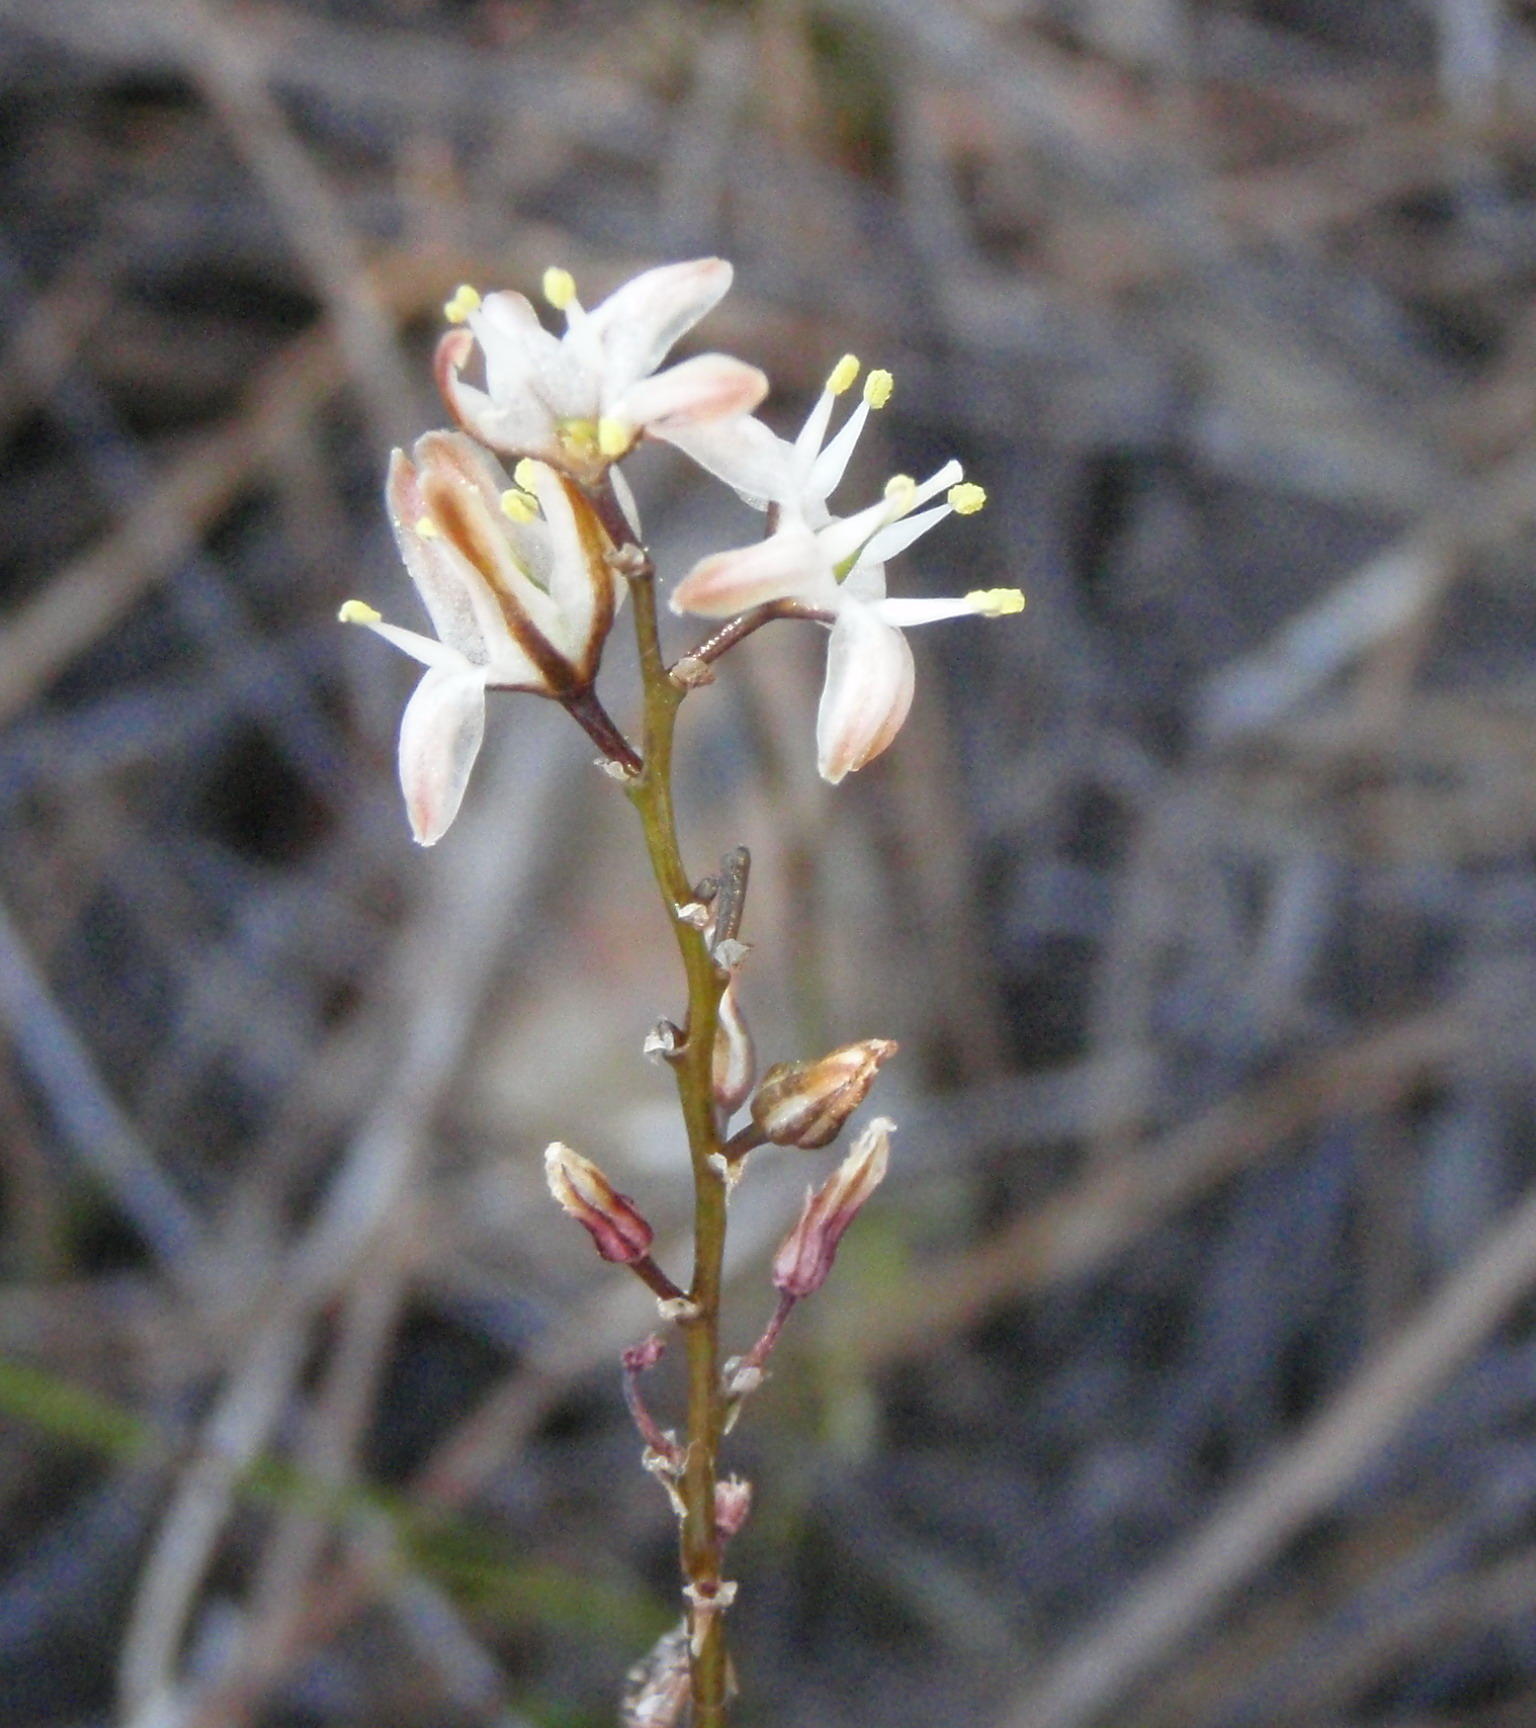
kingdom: Plantae
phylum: Tracheophyta
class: Liliopsida
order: Asparagales
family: Asparagaceae
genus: Drimia
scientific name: Drimia dregei
